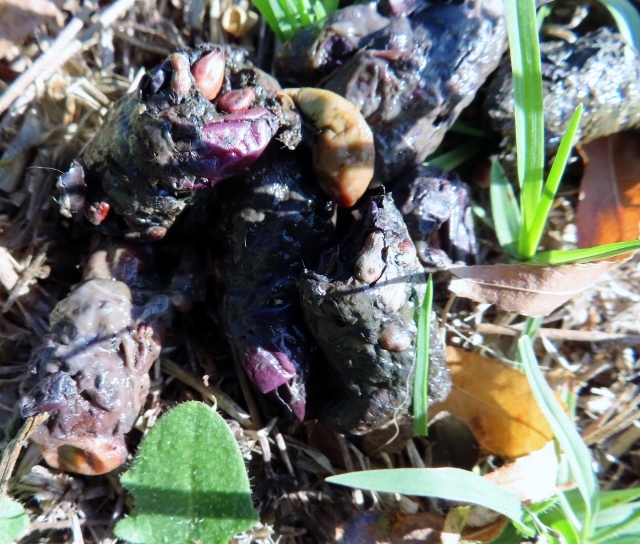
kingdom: Animalia
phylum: Chordata
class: Mammalia
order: Rodentia
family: Hystricidae
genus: Hystrix
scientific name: Hystrix africaeaustralis
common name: Cape porcupine
